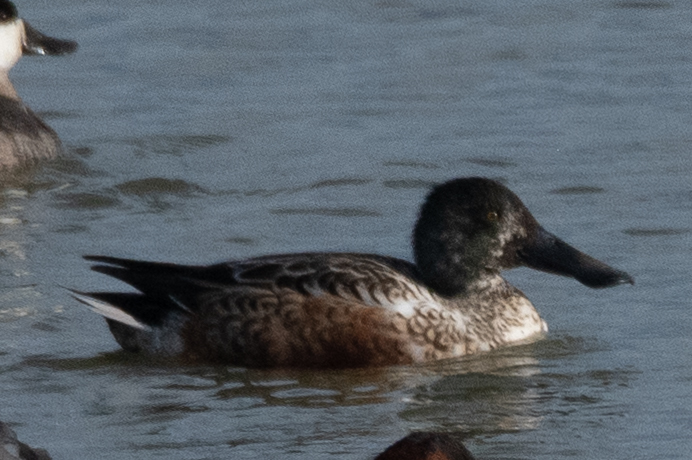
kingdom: Animalia
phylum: Chordata
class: Aves
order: Anseriformes
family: Anatidae
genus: Spatula
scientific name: Spatula clypeata
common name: Northern shoveler
